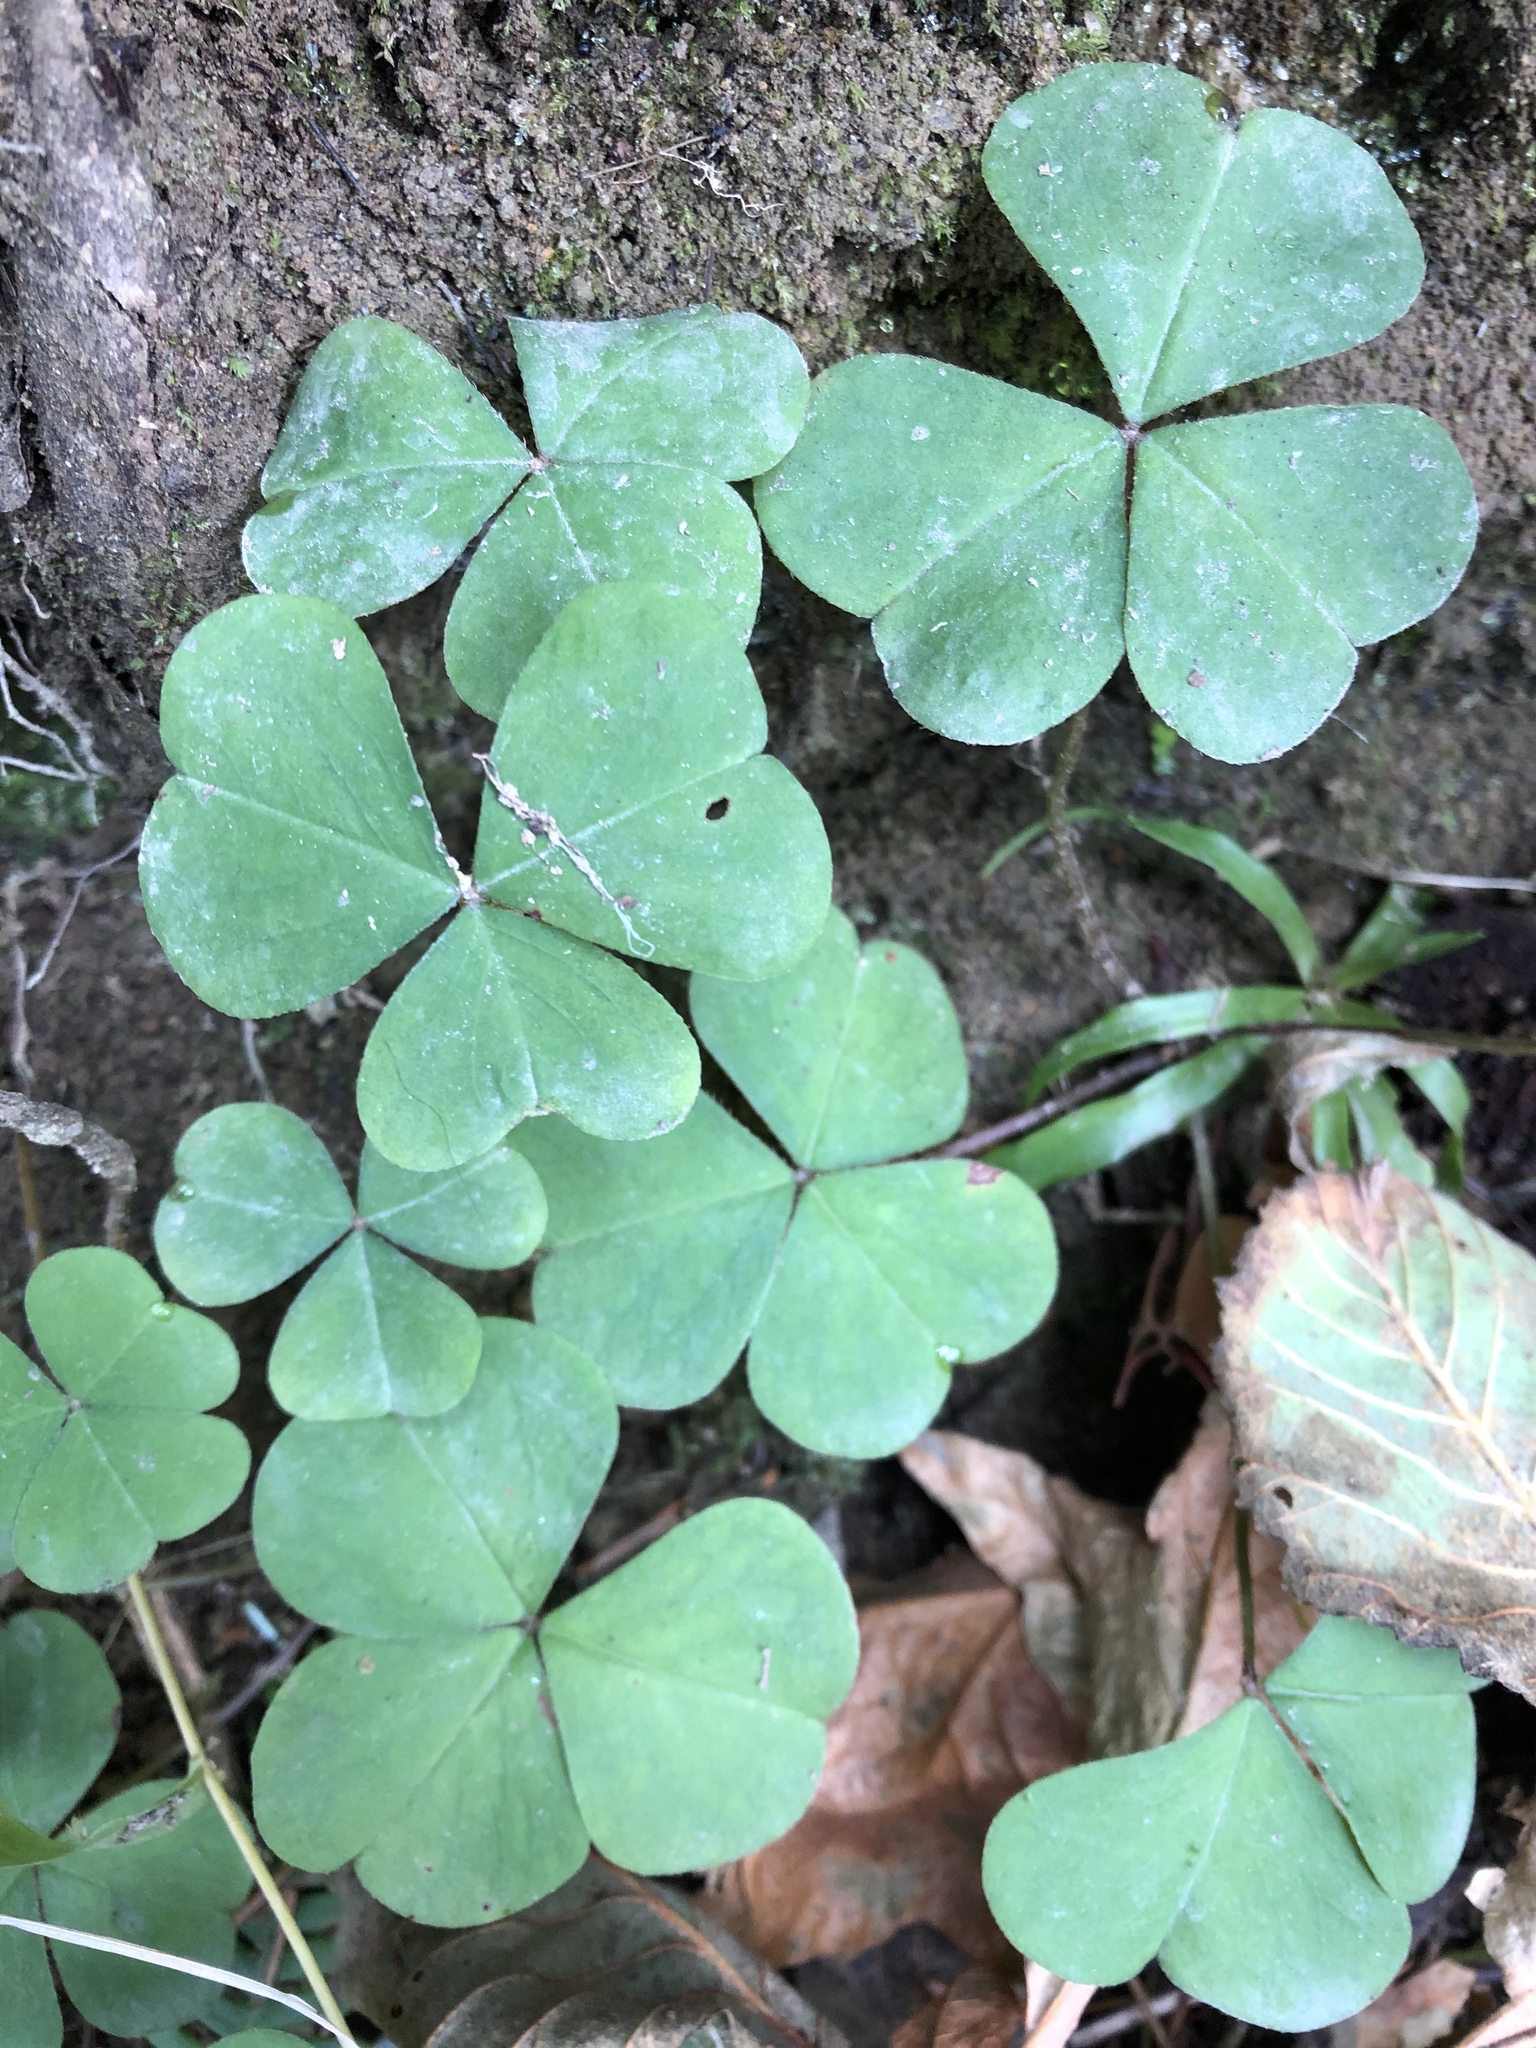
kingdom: Plantae
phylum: Tracheophyta
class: Magnoliopsida
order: Oxalidales
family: Oxalidaceae
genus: Oxalis
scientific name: Oxalis oregana
